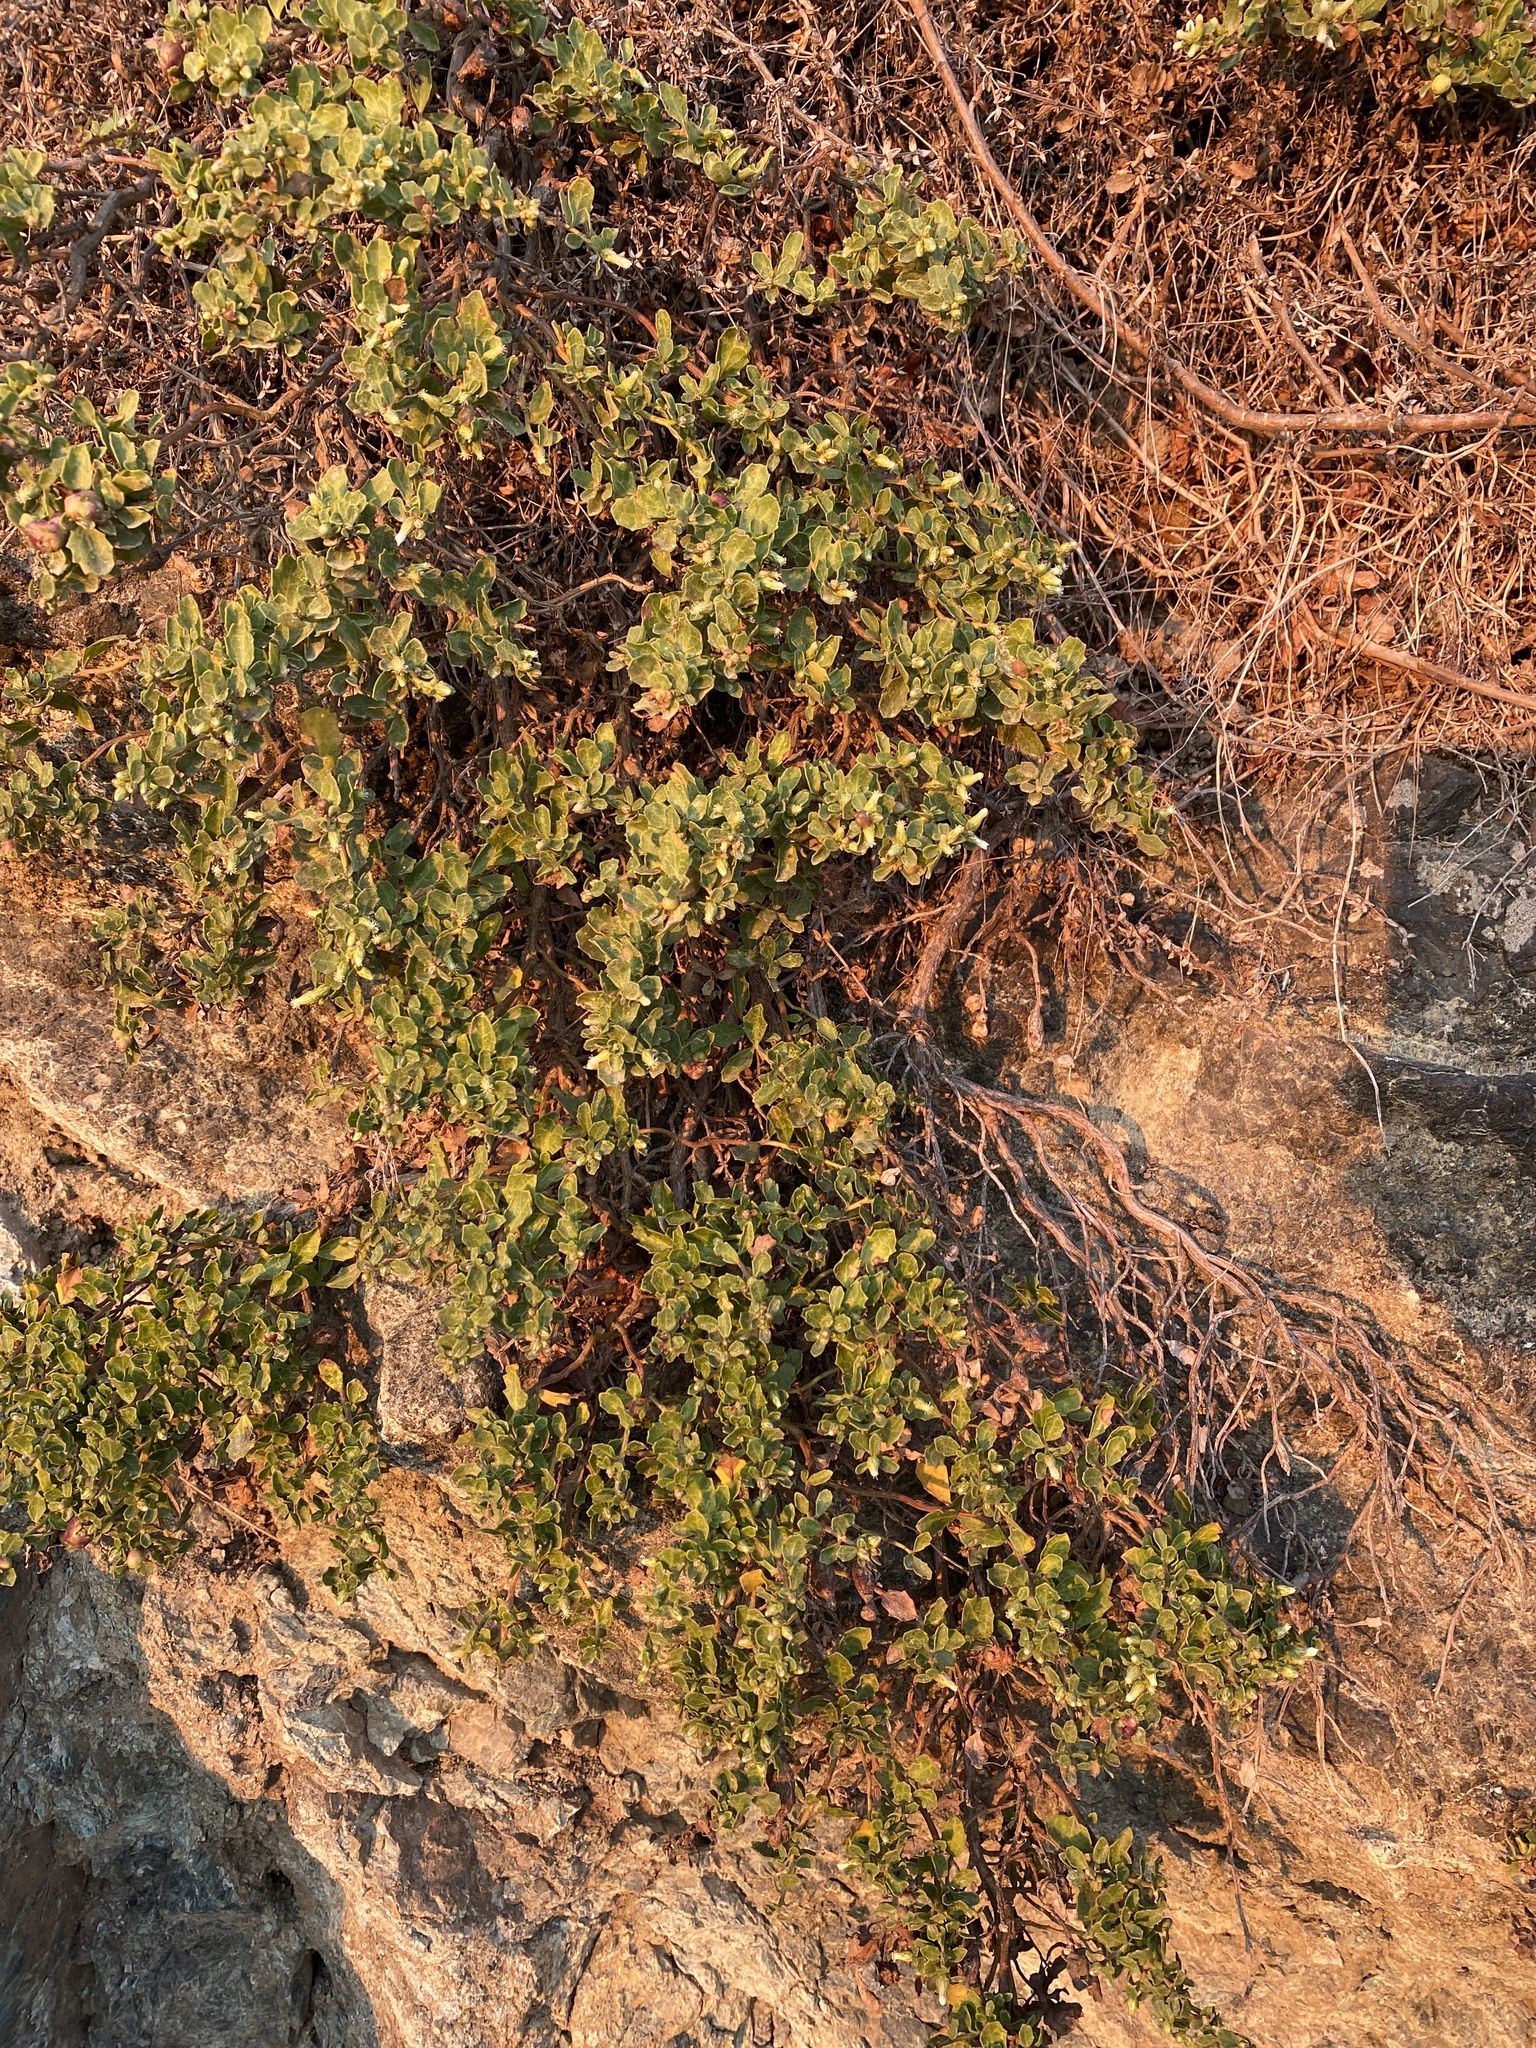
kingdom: Plantae
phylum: Tracheophyta
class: Magnoliopsida
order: Asterales
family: Asteraceae
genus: Baccharis
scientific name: Baccharis pilularis
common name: Coyotebrush
